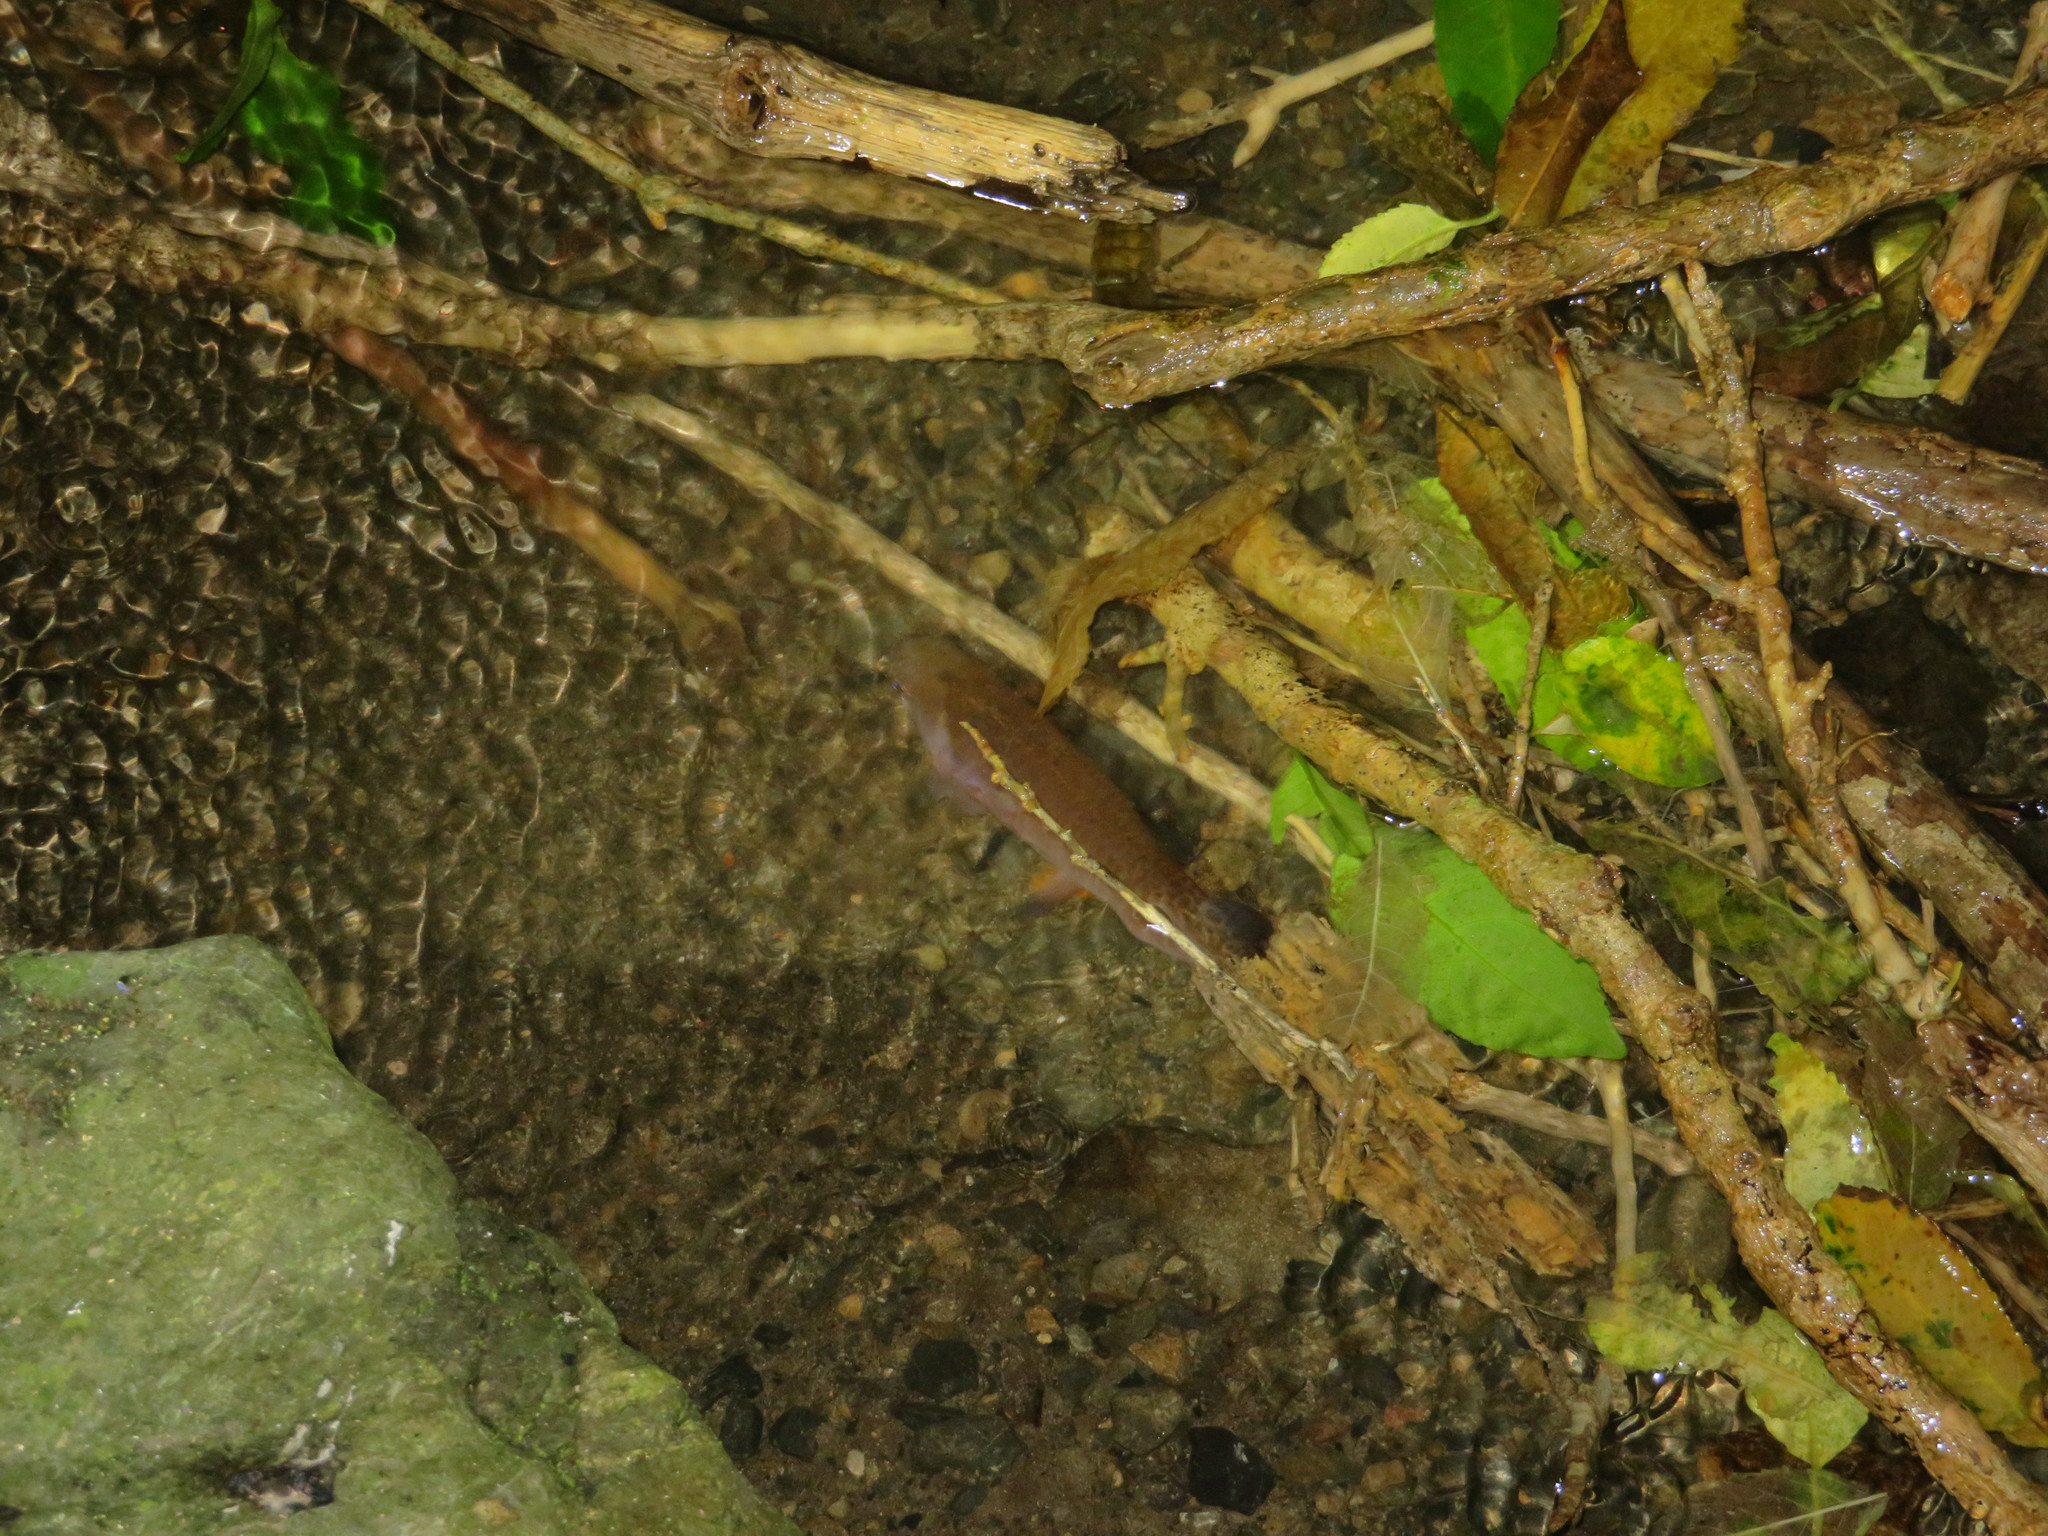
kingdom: Animalia
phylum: Chordata
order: Osmeriformes
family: Galaxiidae
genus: Galaxias
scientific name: Galaxias fasciatus
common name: Banded kokopu
